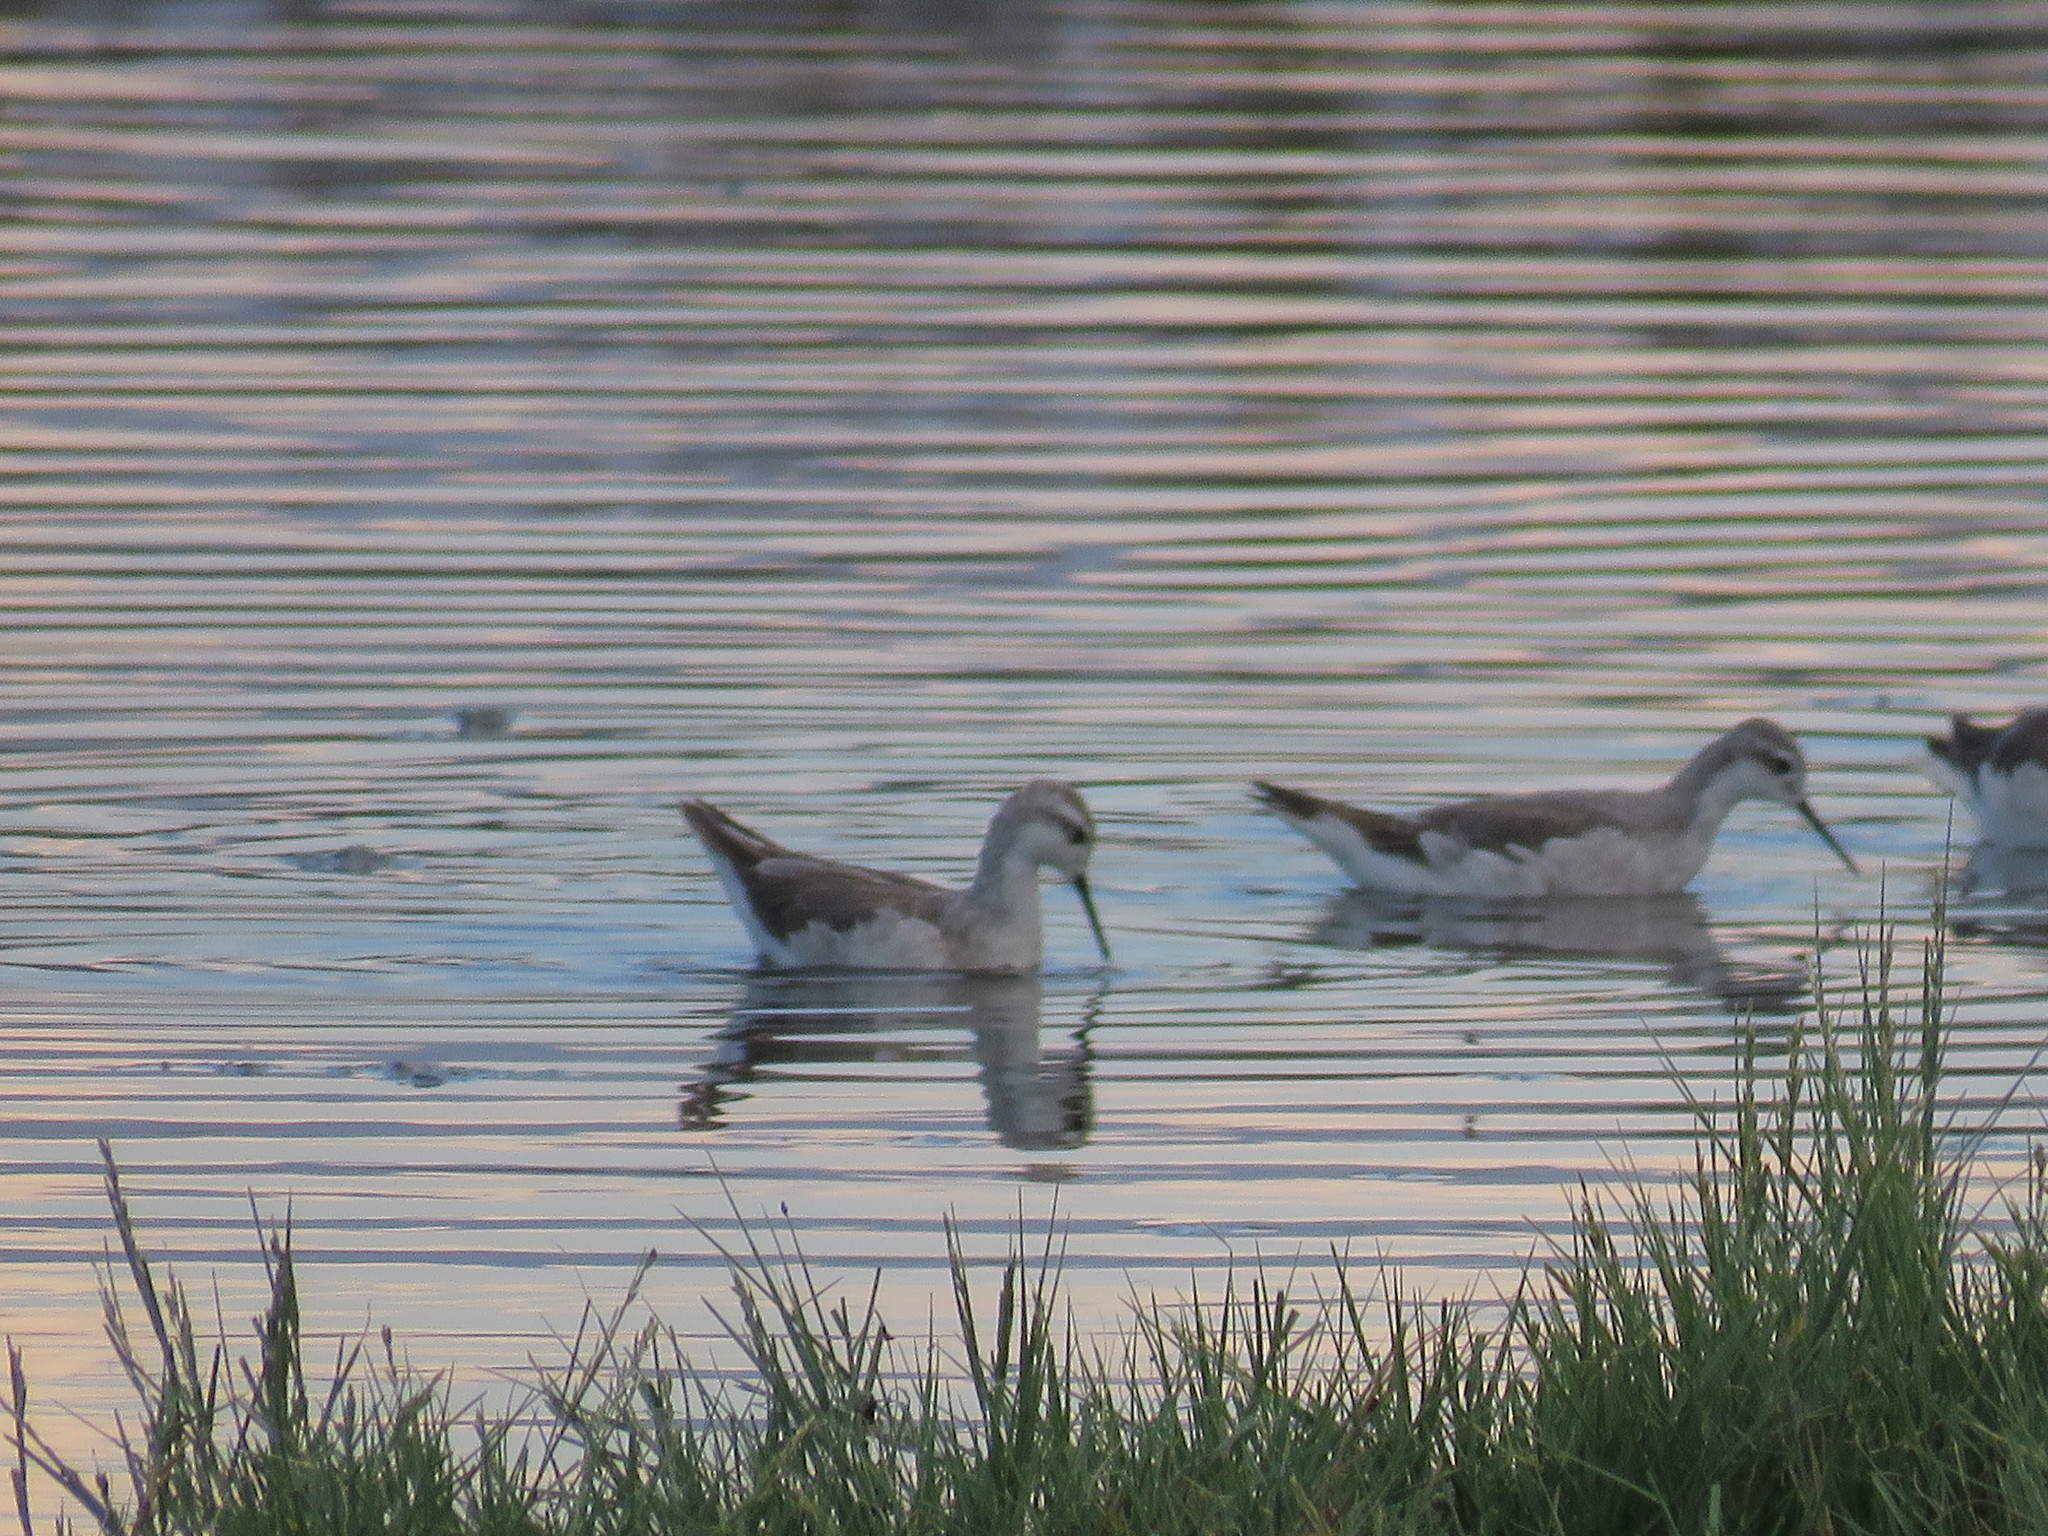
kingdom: Animalia
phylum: Chordata
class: Aves
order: Charadriiformes
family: Scolopacidae
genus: Phalaropus
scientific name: Phalaropus tricolor
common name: Wilson's phalarope
